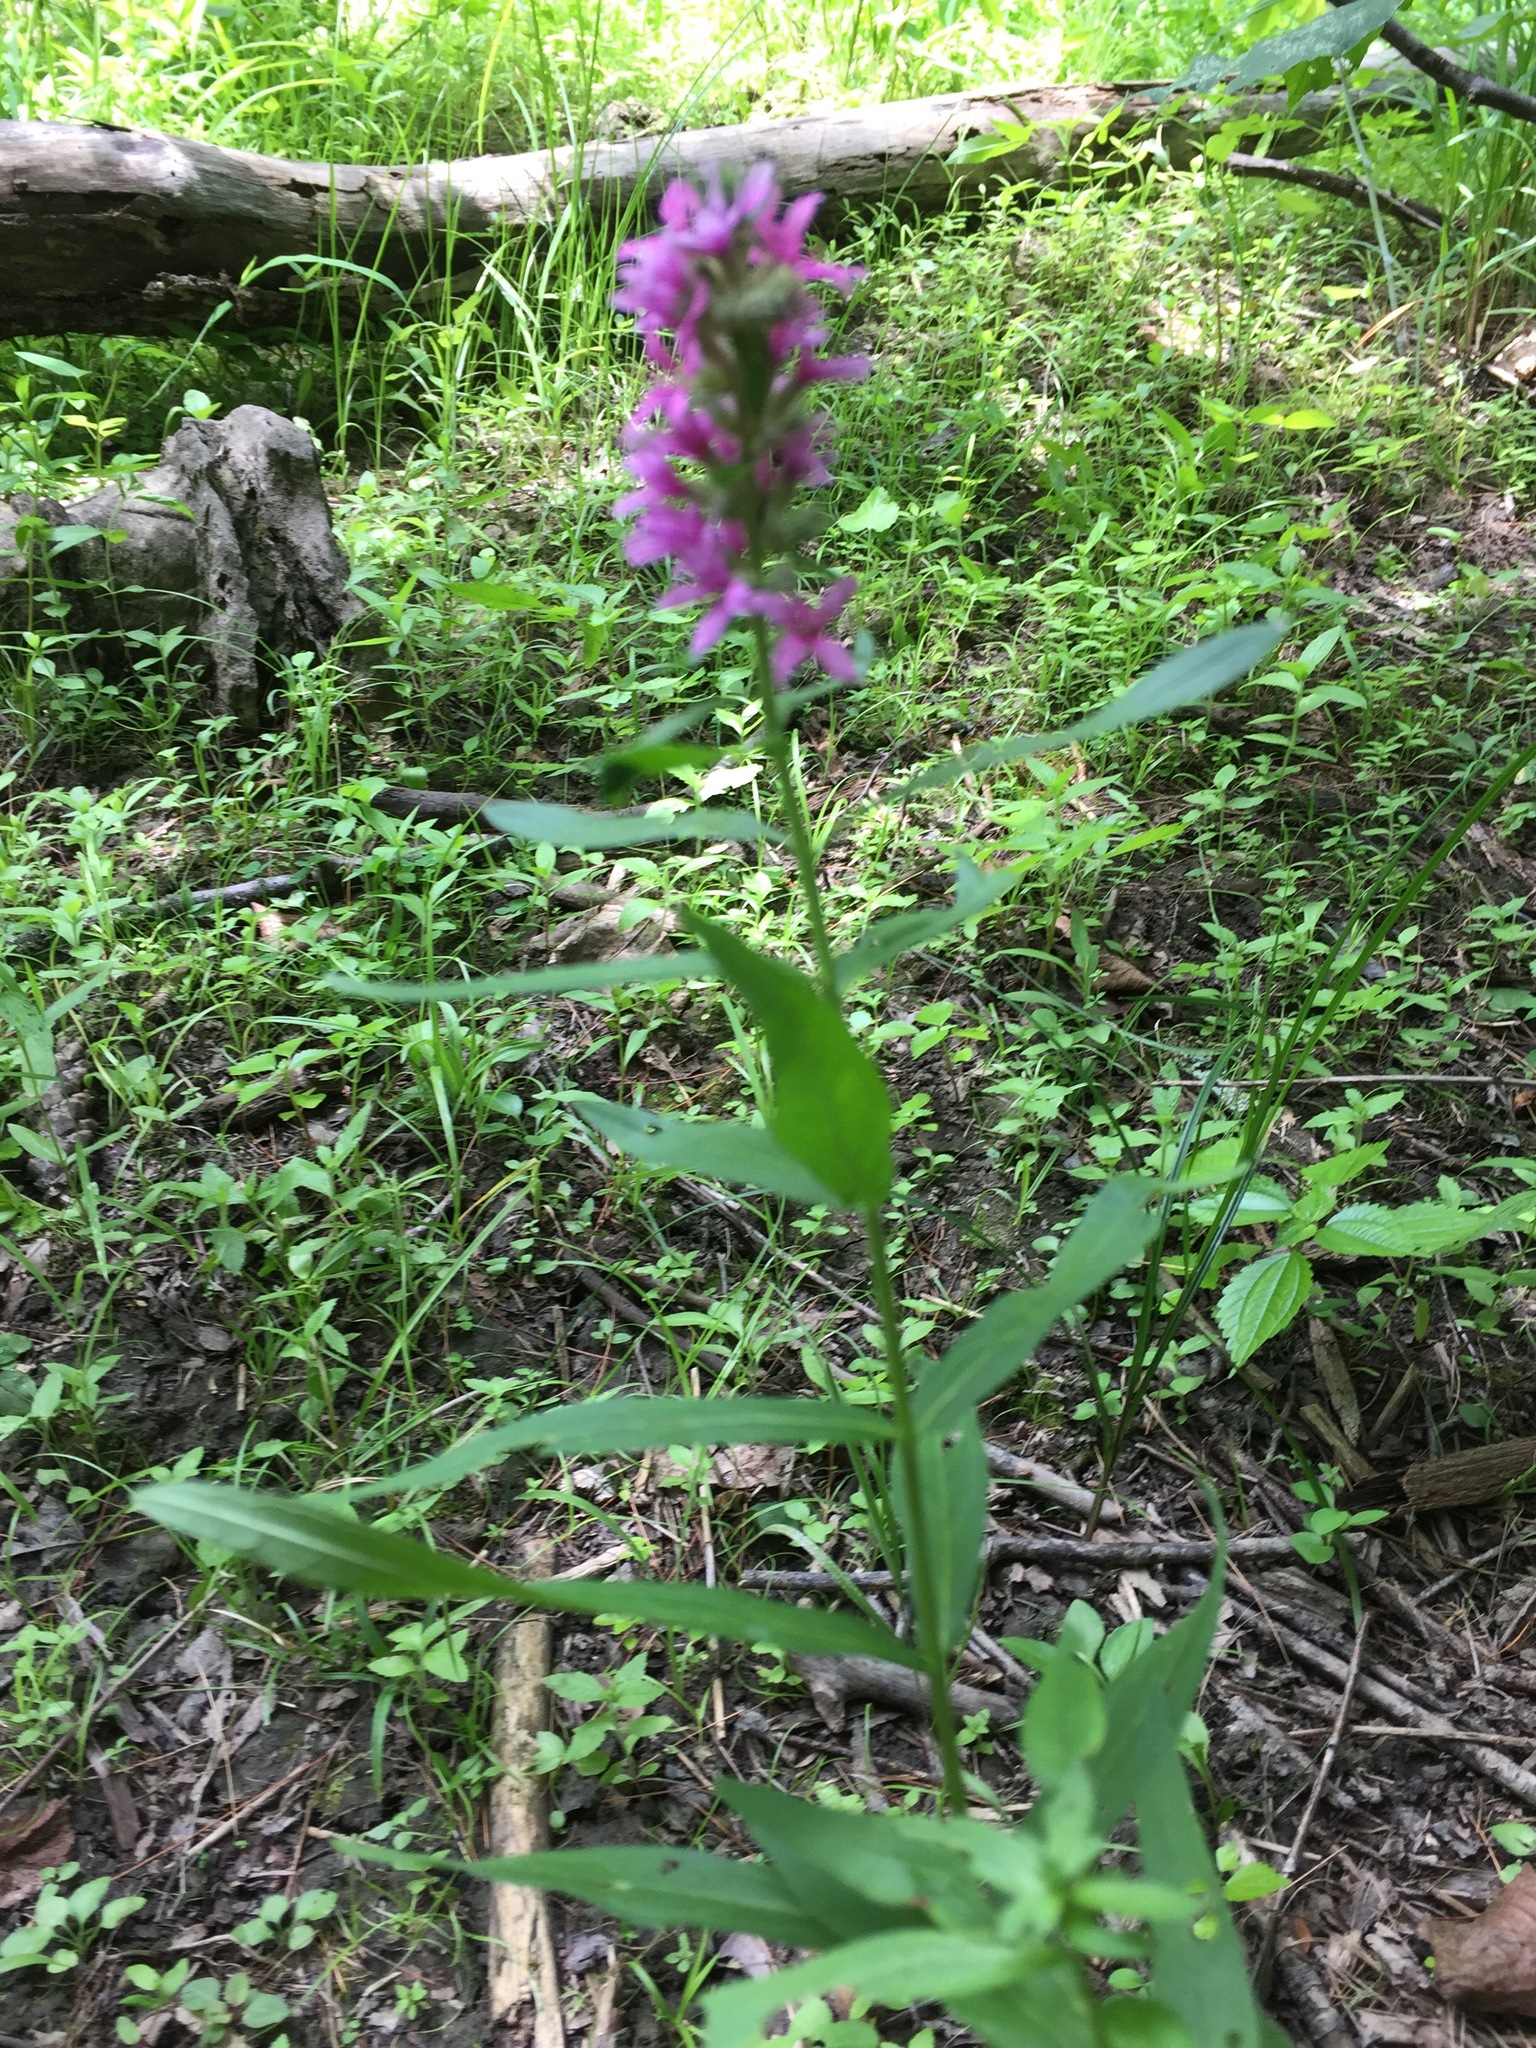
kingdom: Plantae
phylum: Tracheophyta
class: Magnoliopsida
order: Myrtales
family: Lythraceae
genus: Lythrum
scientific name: Lythrum salicaria
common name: Purple loosestrife
